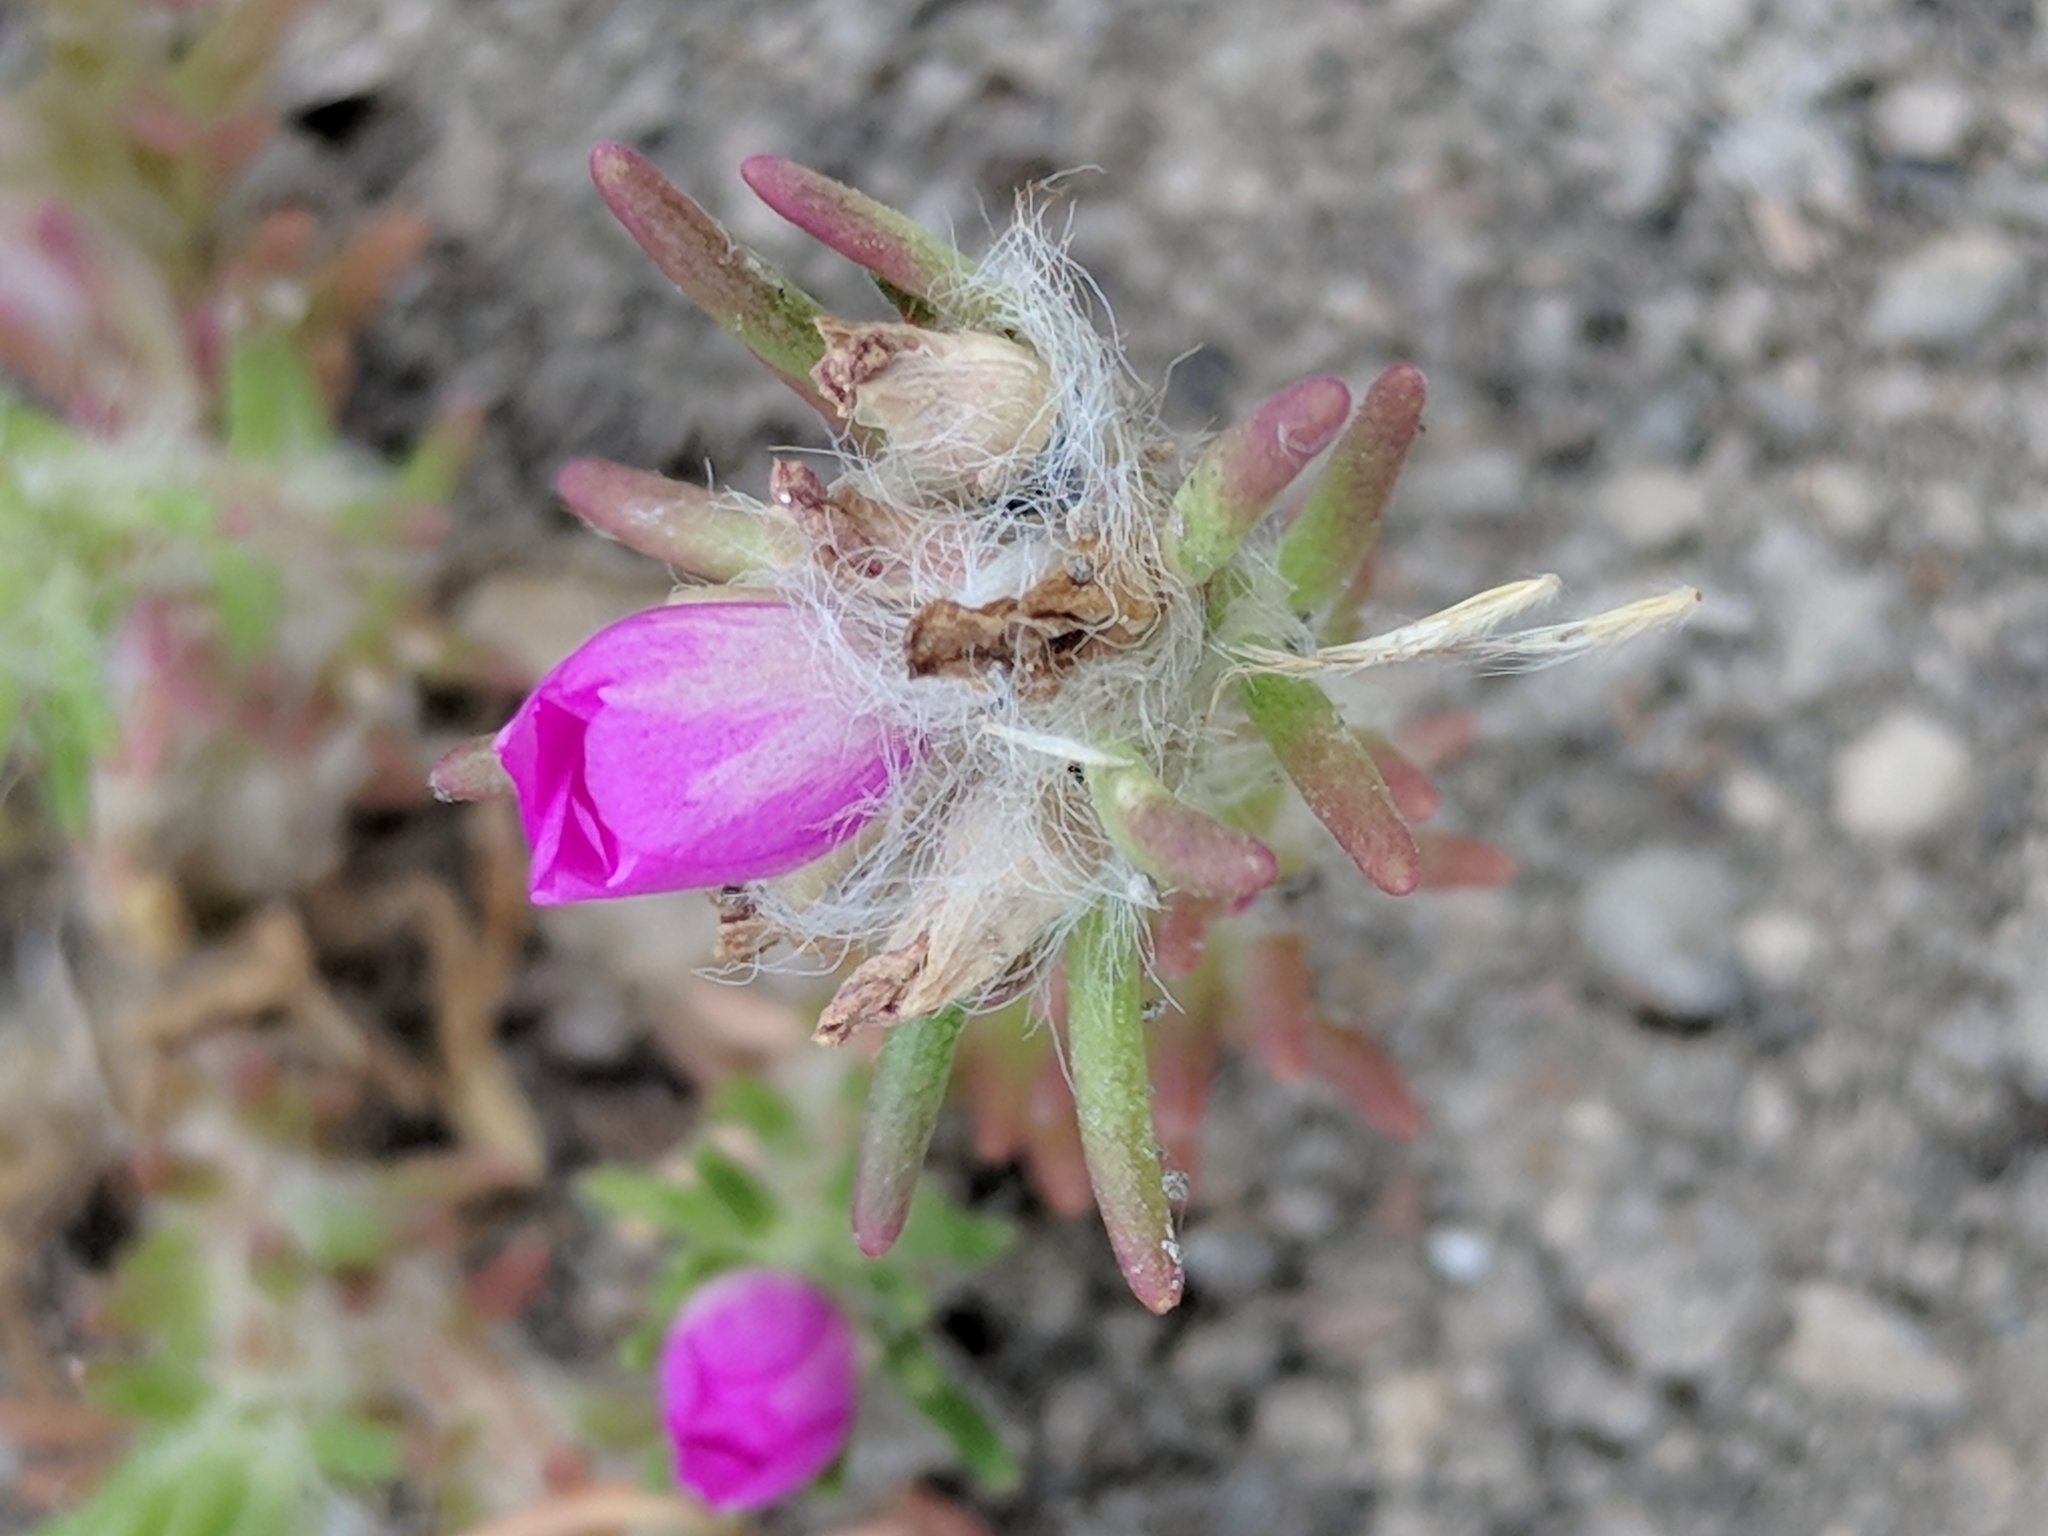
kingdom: Plantae
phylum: Tracheophyta
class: Magnoliopsida
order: Caryophyllales
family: Portulacaceae
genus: Portulaca
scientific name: Portulaca pilosa
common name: Kiss me quick
